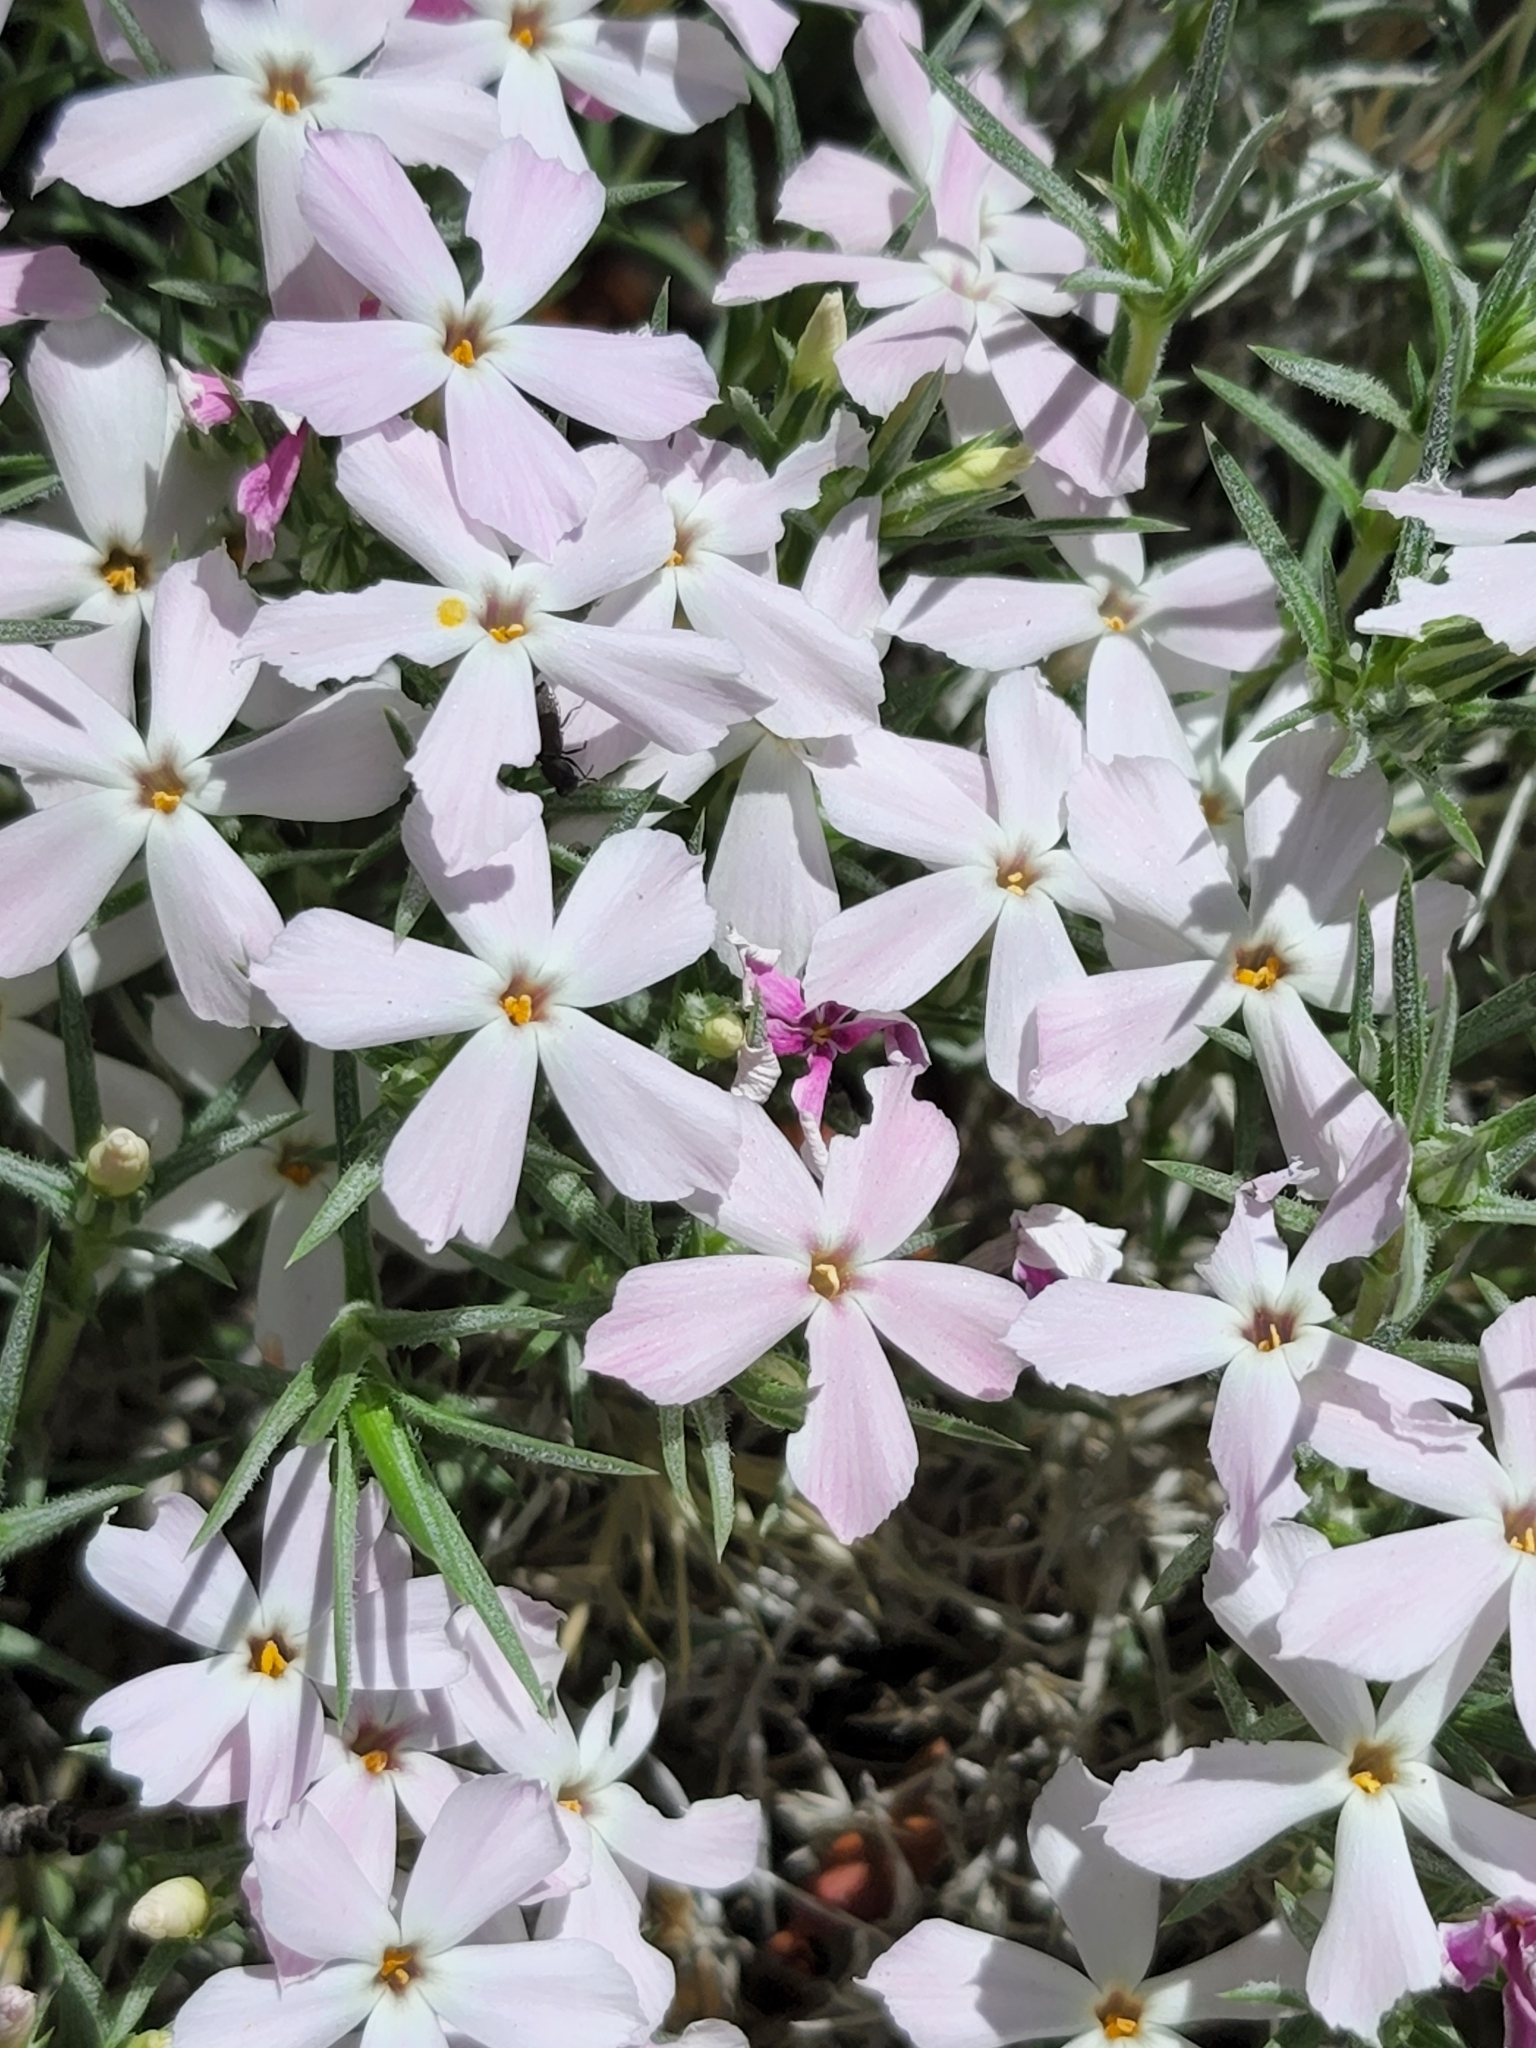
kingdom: Plantae
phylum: Tracheophyta
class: Magnoliopsida
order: Ericales
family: Polemoniaceae
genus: Phlox
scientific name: Phlox austromontana
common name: Desert phlox
